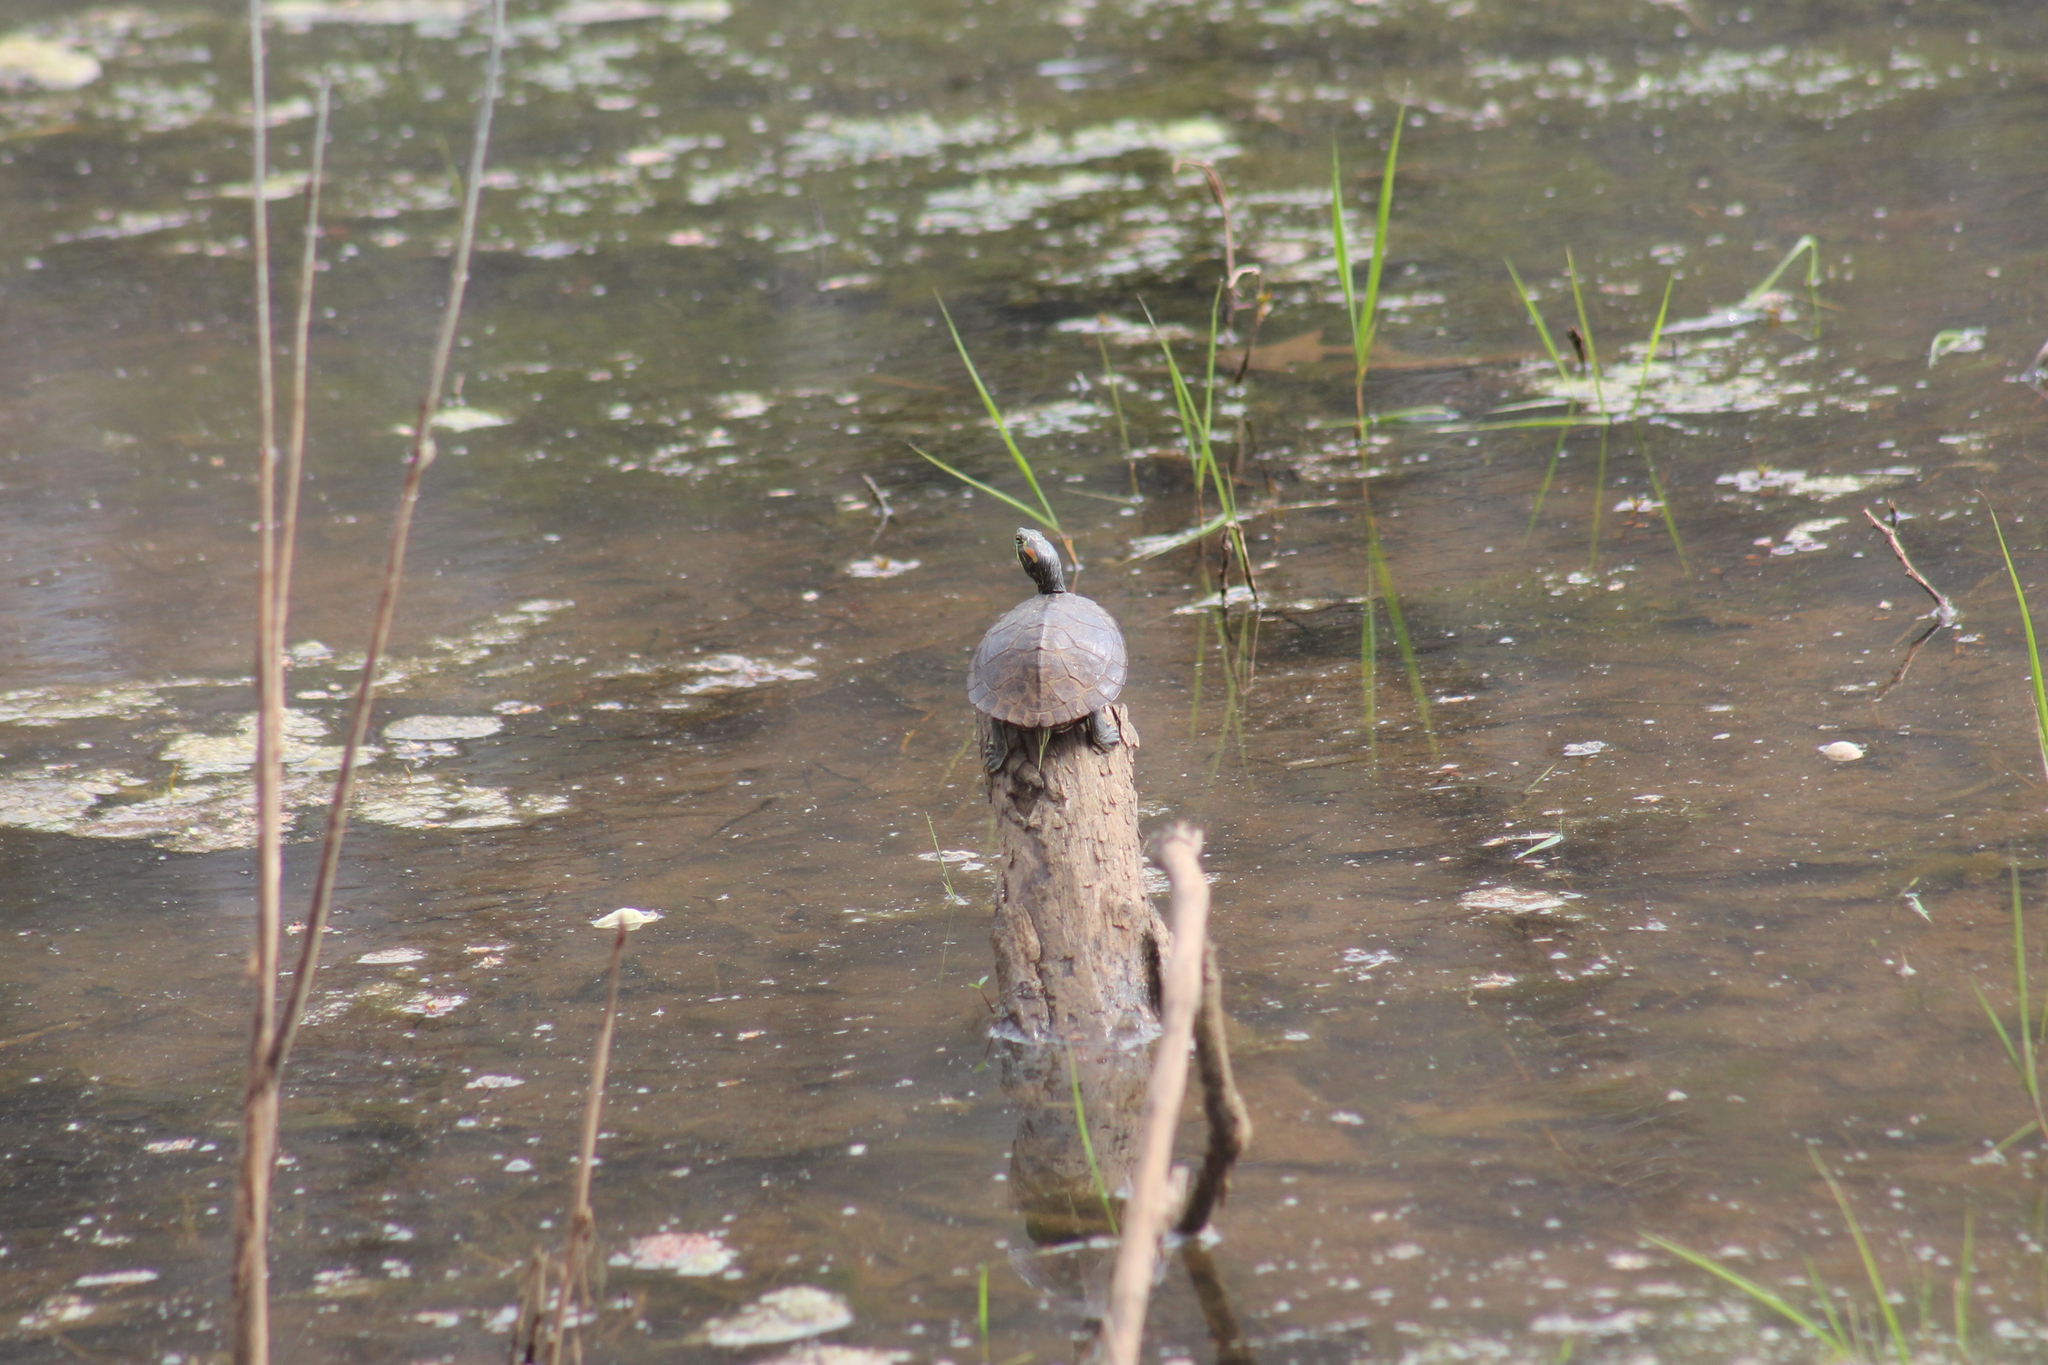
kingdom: Animalia
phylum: Chordata
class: Testudines
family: Emydidae
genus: Trachemys
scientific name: Trachemys scripta
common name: Slider
